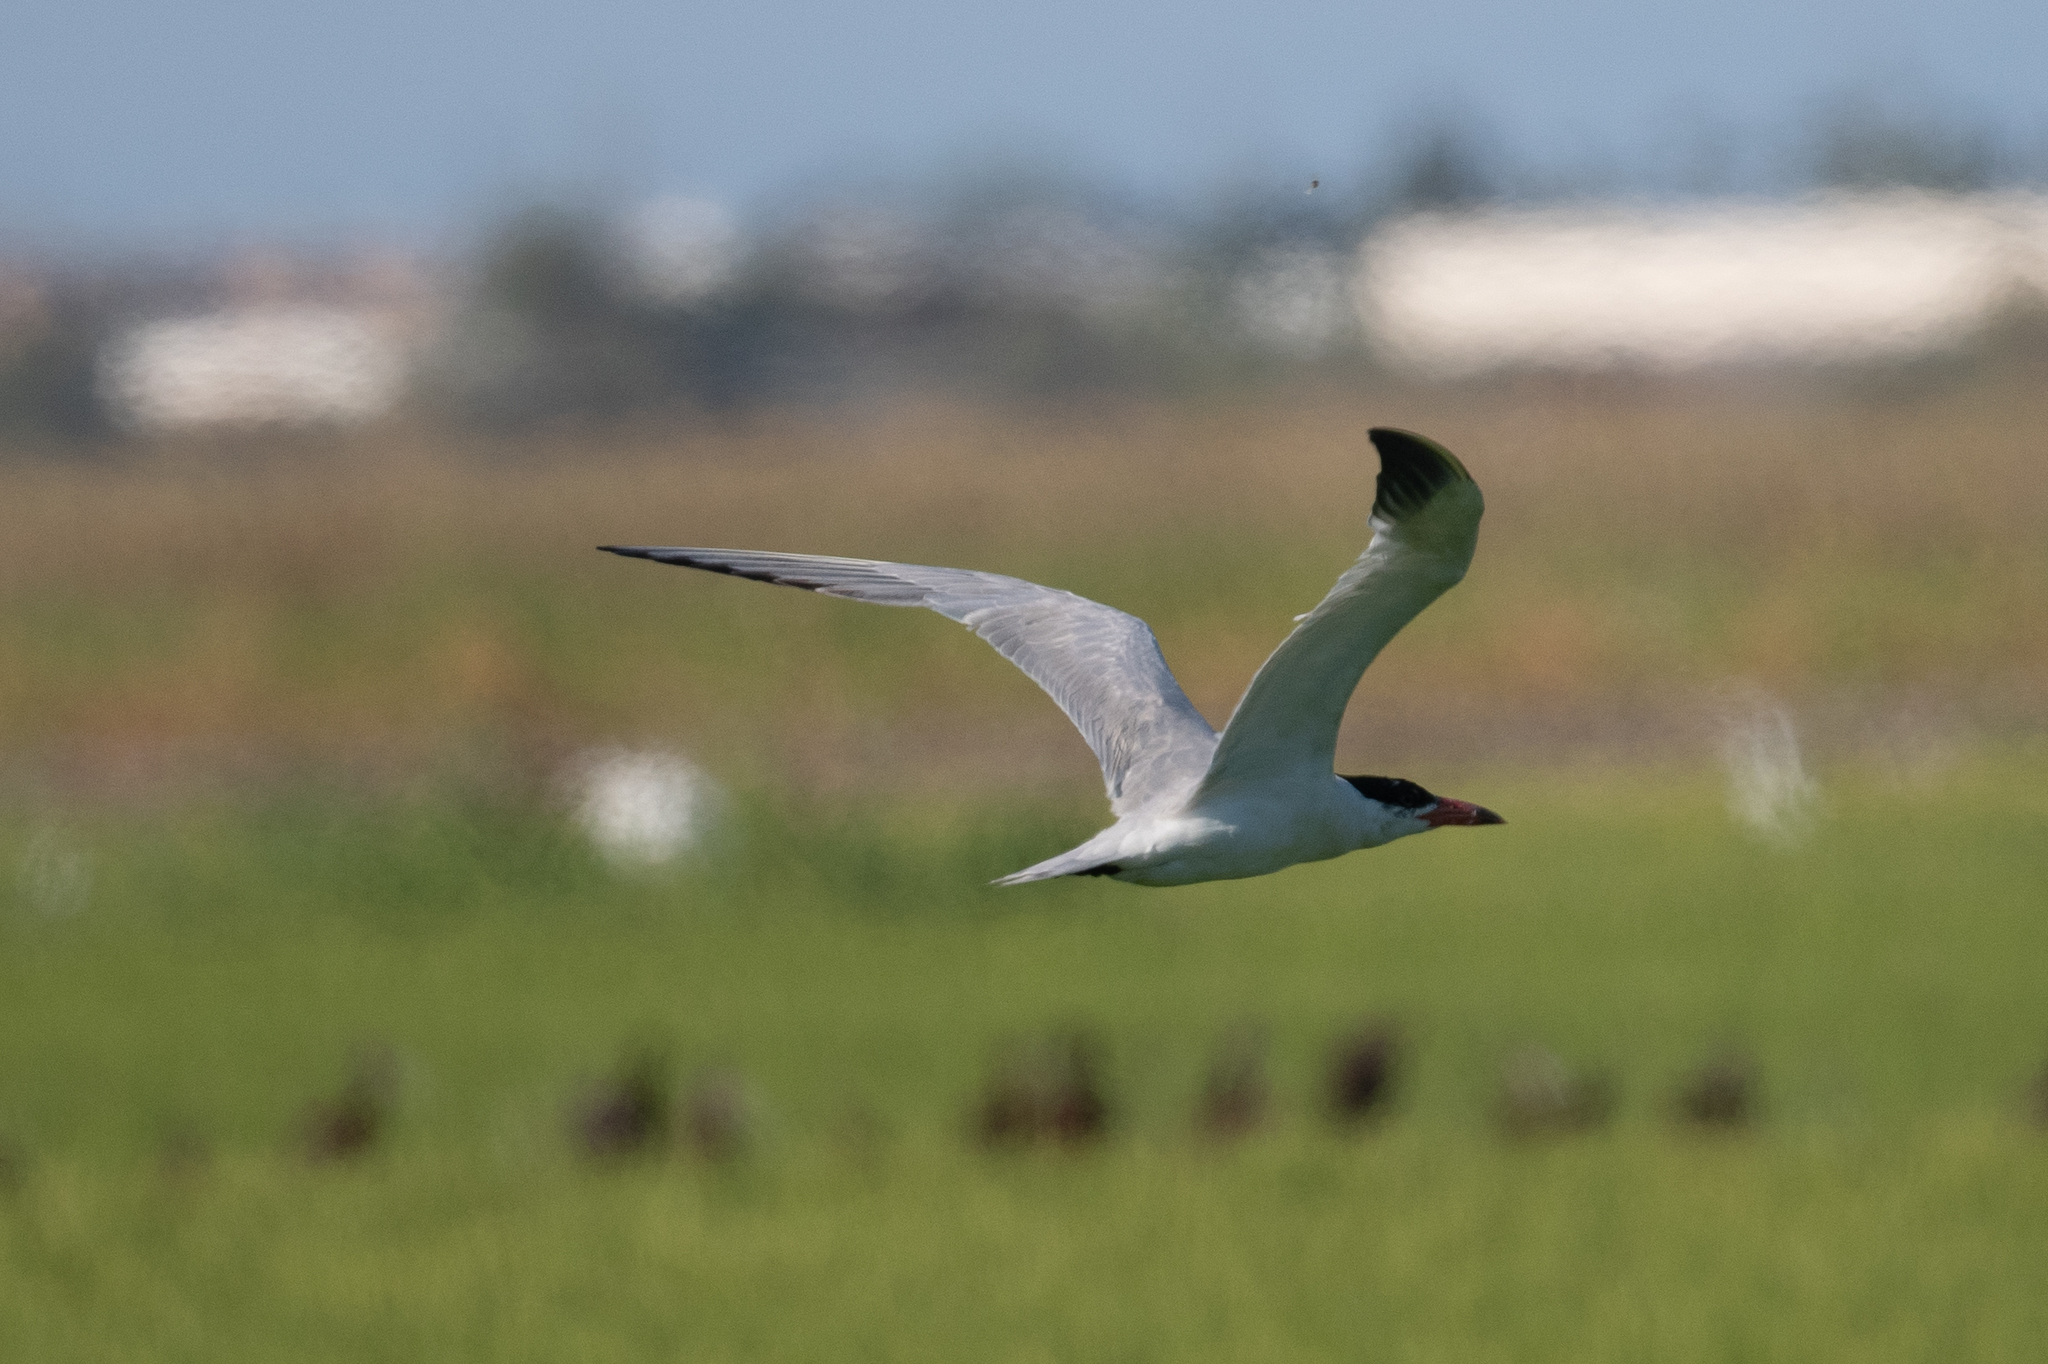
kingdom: Animalia
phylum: Chordata
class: Aves
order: Charadriiformes
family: Laridae
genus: Hydroprogne
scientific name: Hydroprogne caspia
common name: Caspian tern
